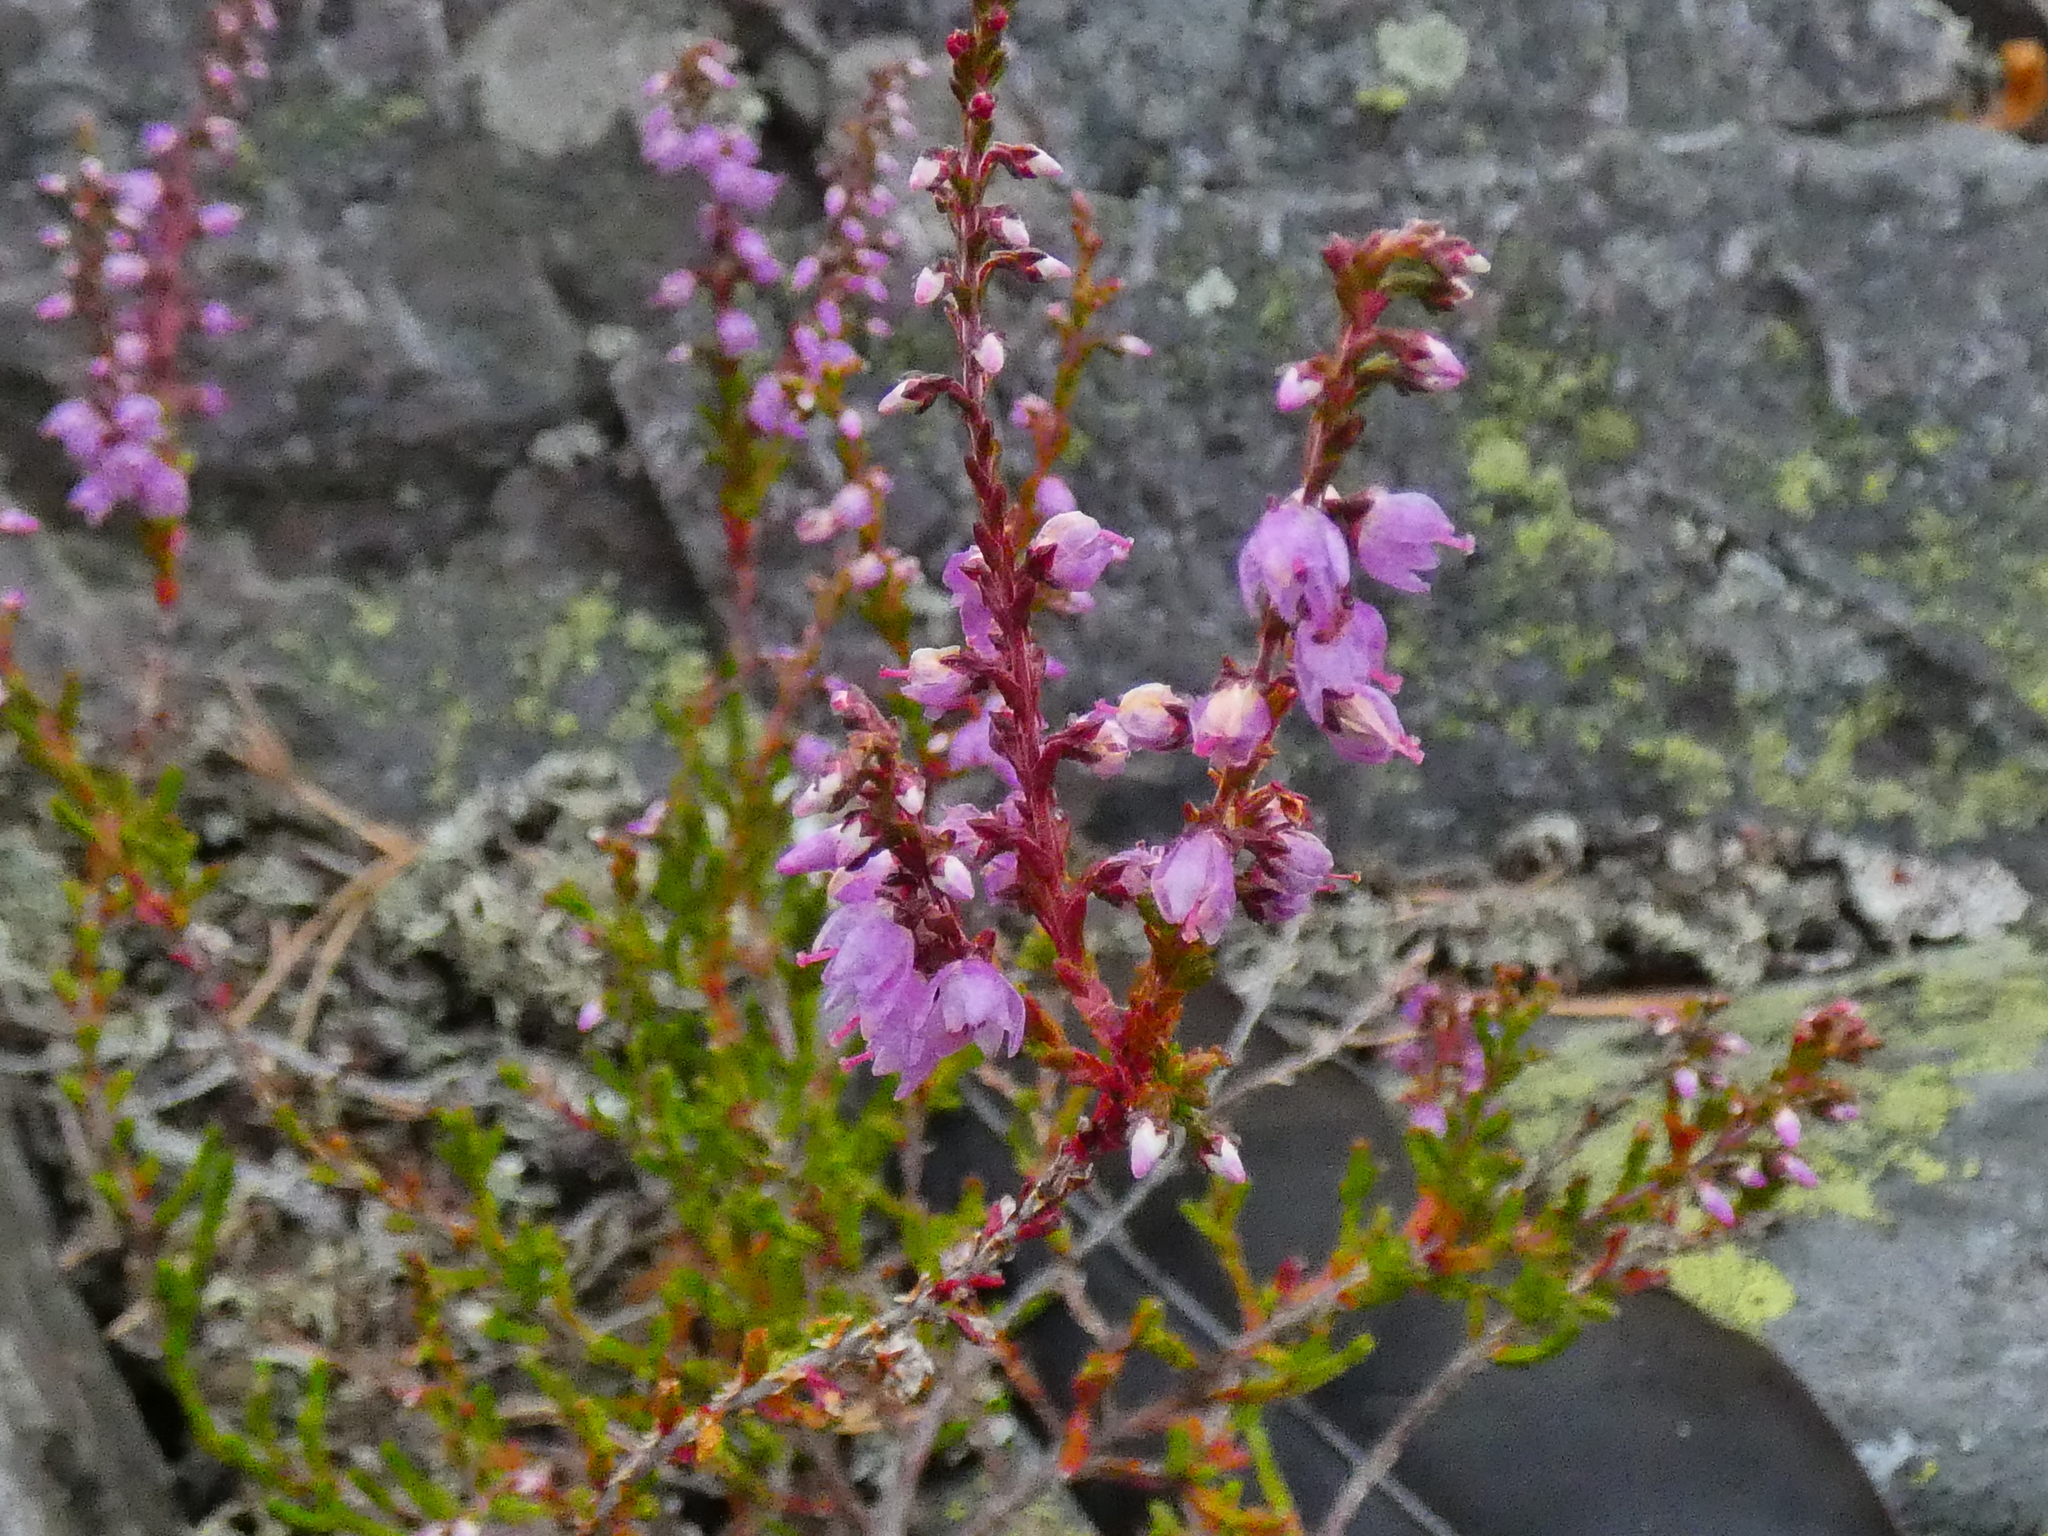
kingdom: Plantae
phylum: Tracheophyta
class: Magnoliopsida
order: Ericales
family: Ericaceae
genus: Calluna
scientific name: Calluna vulgaris
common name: Heather
